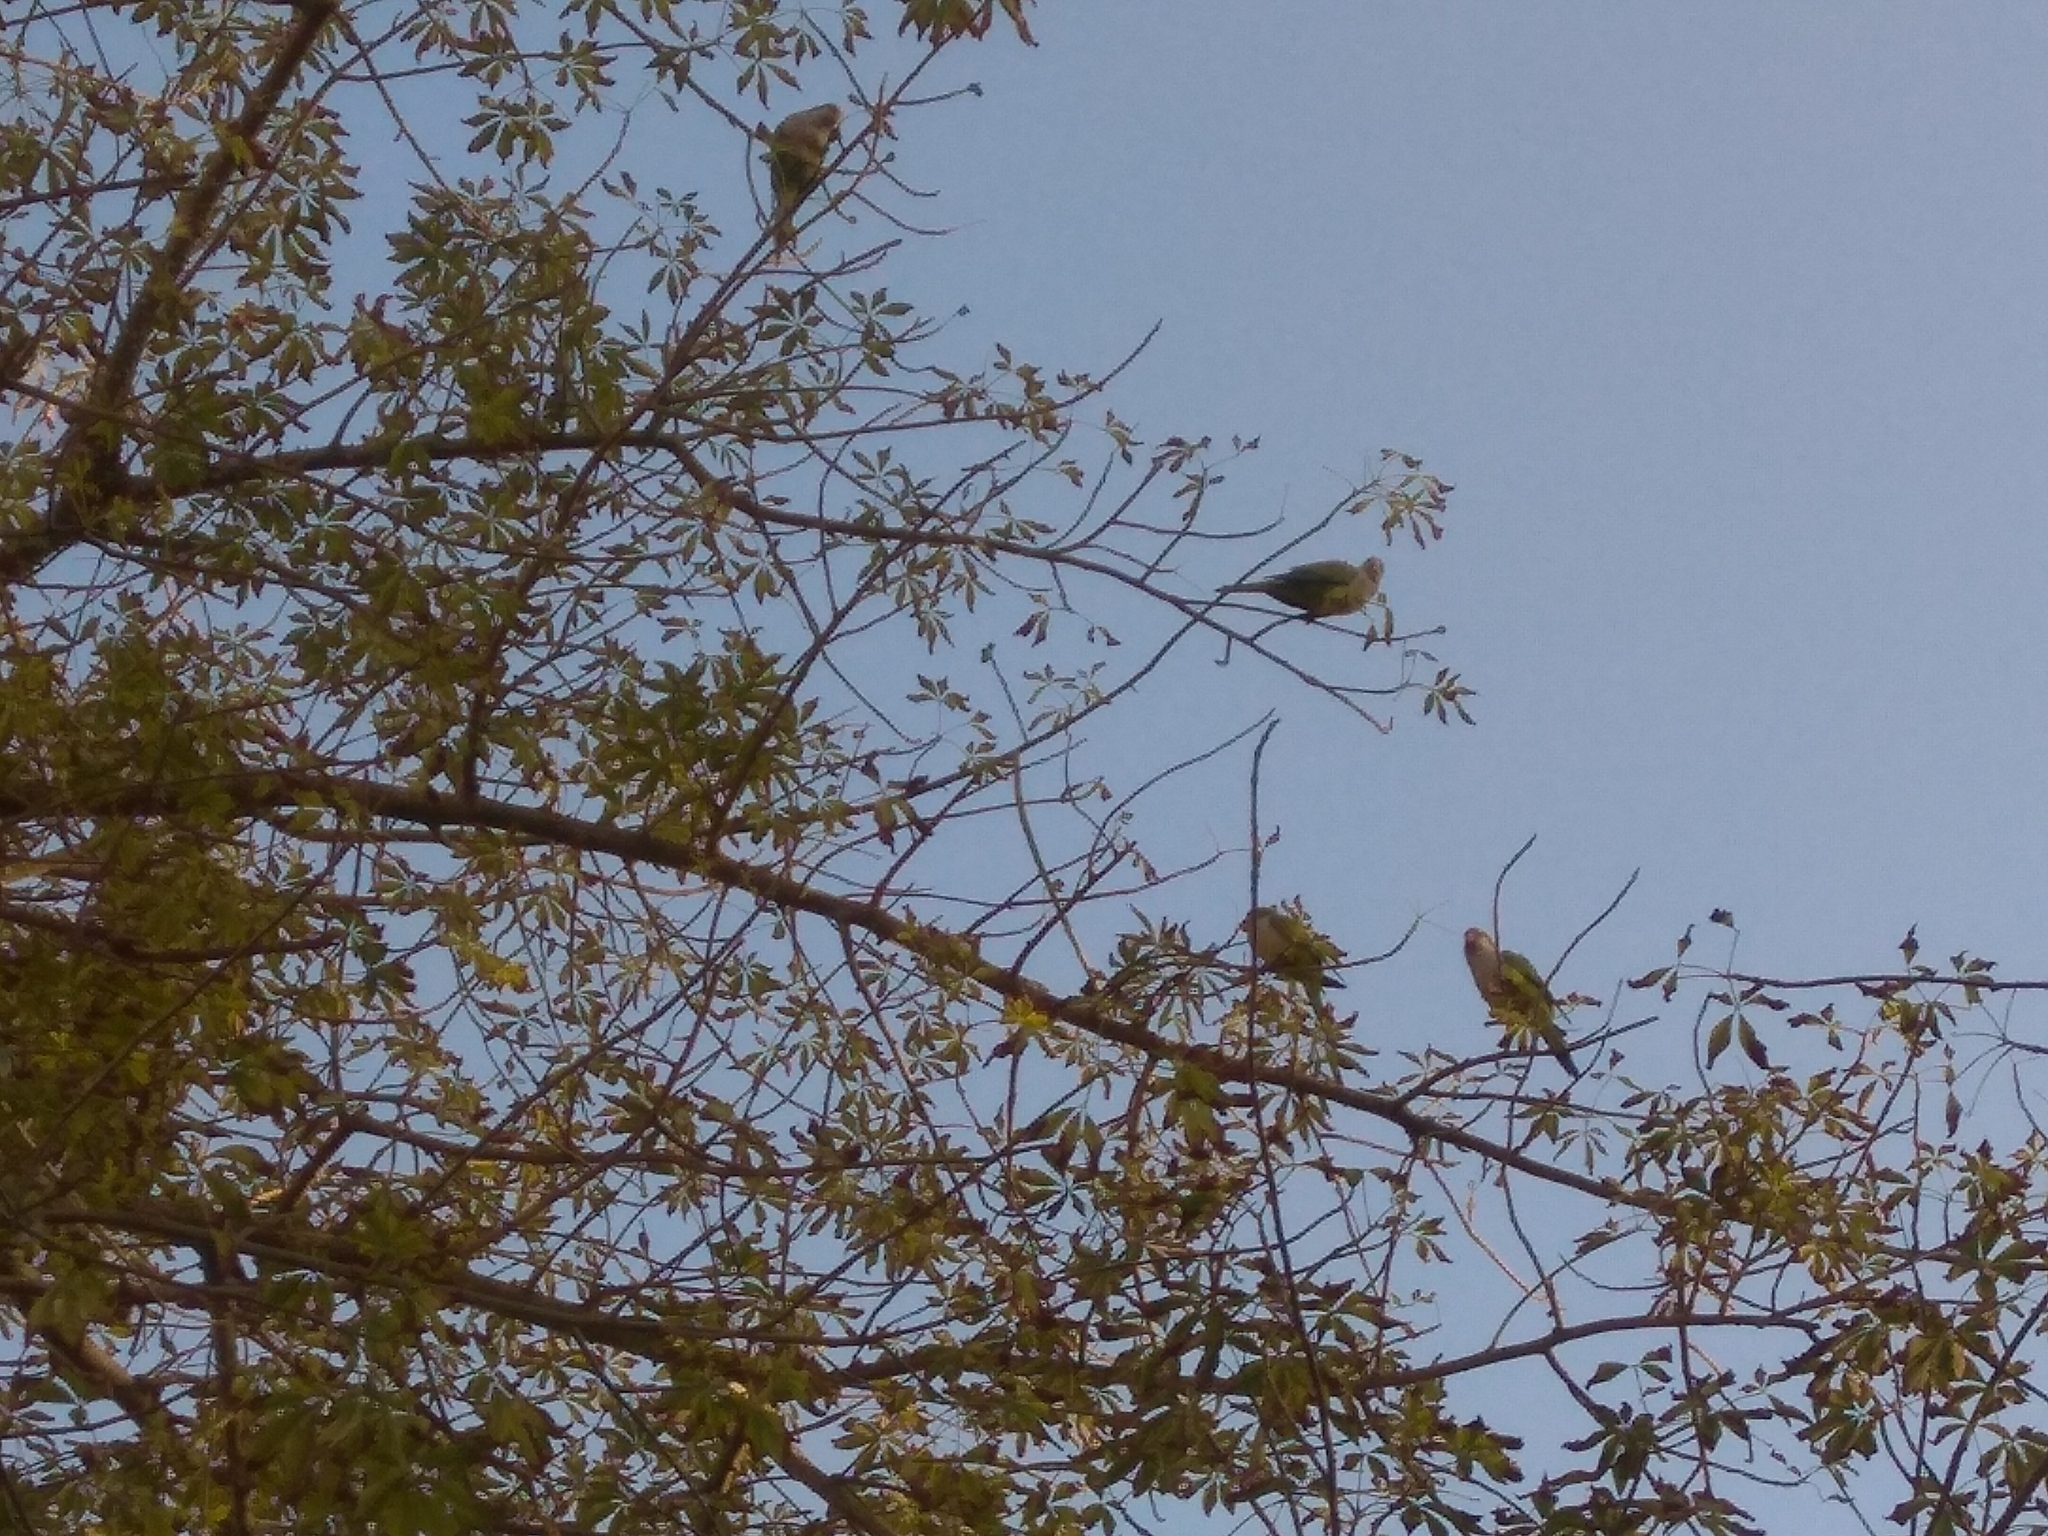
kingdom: Animalia
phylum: Chordata
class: Aves
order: Psittaciformes
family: Psittacidae
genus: Myiopsitta
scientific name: Myiopsitta monachus
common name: Monk parakeet
